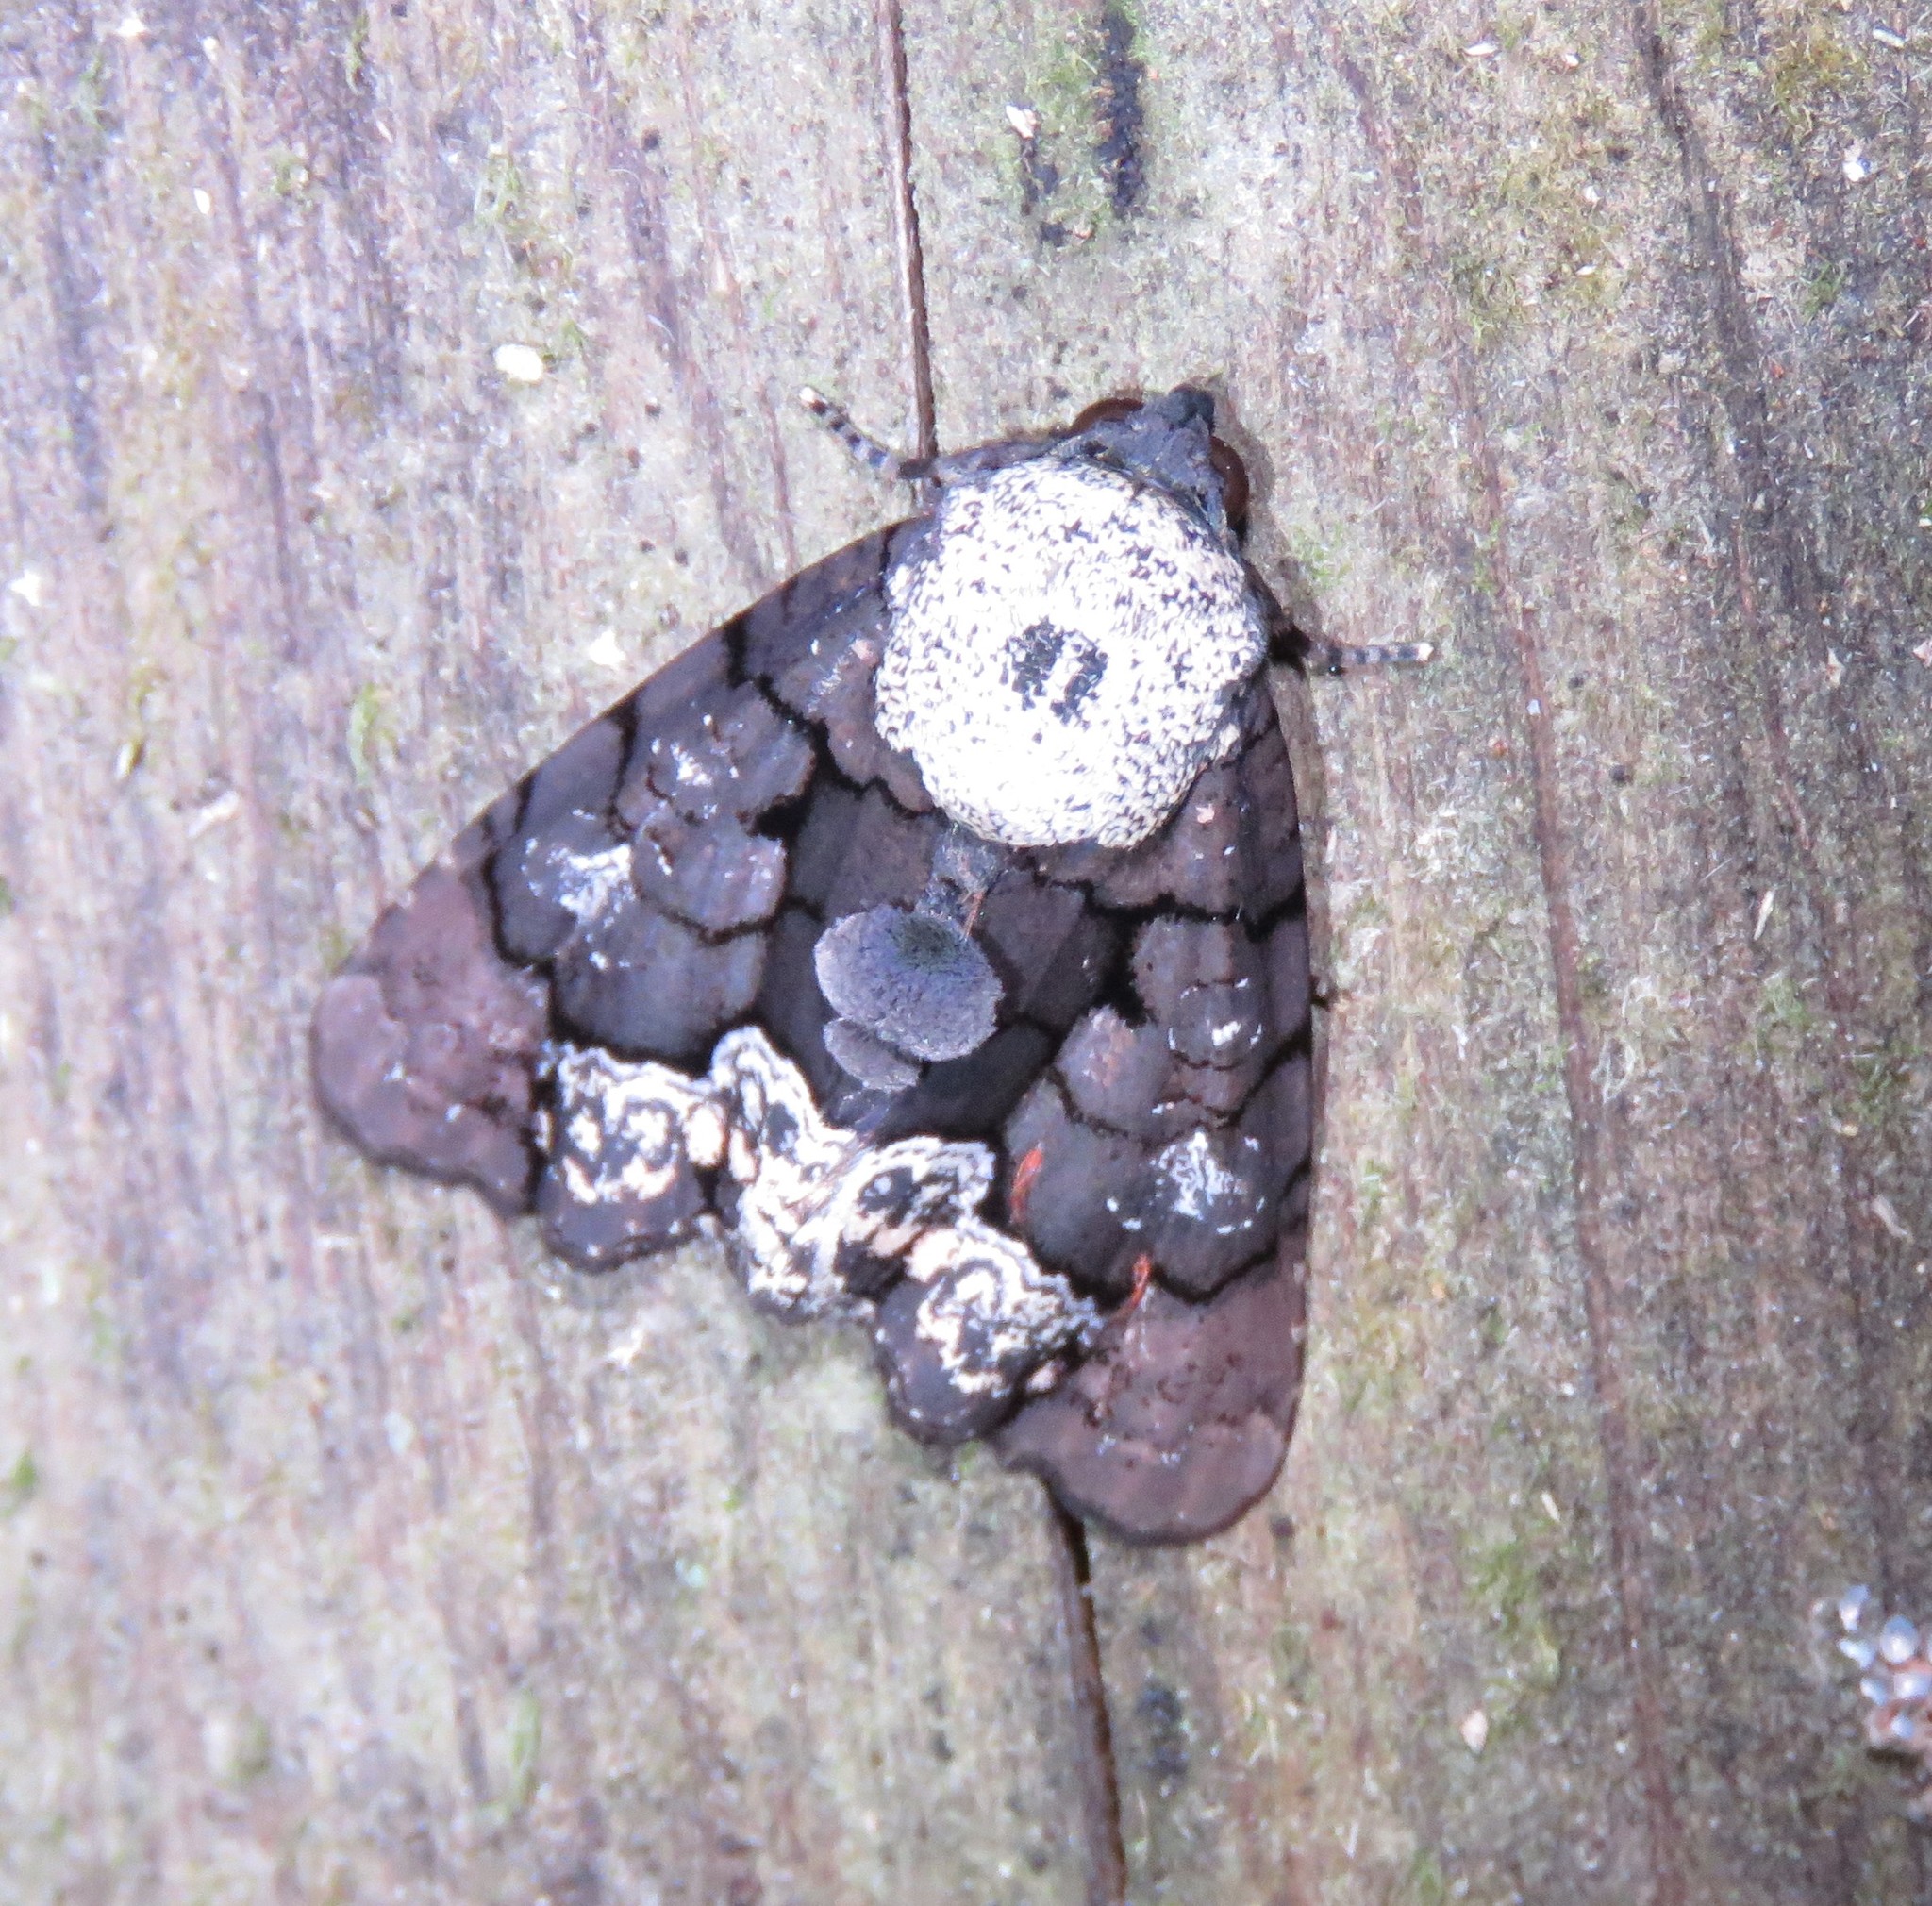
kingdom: Animalia
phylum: Arthropoda
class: Insecta
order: Lepidoptera
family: Noctuidae
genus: Cropia
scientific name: Cropia isidora
